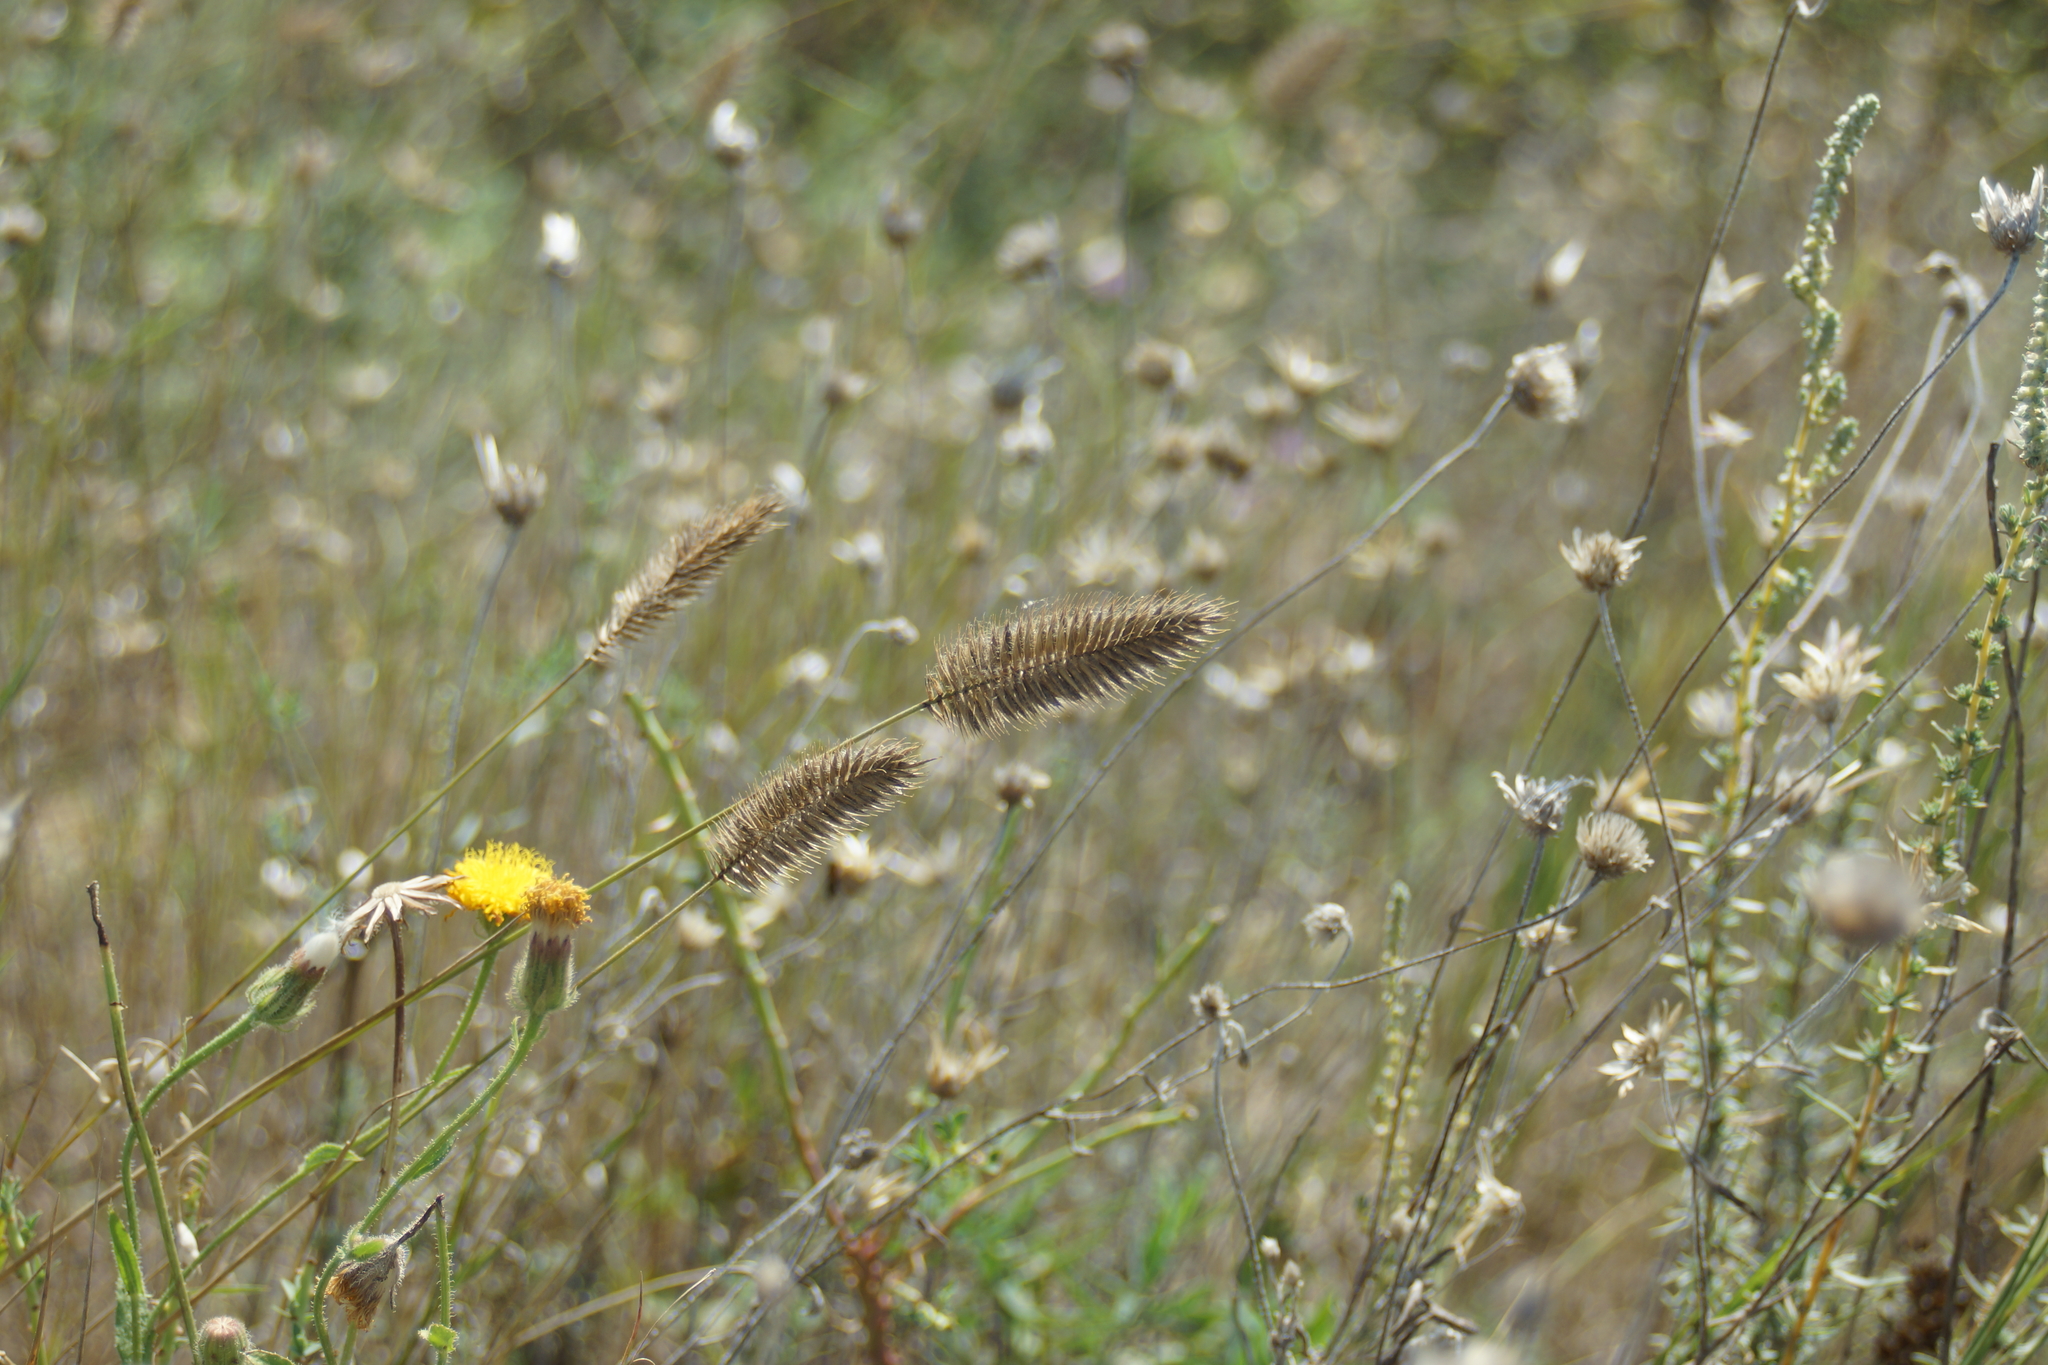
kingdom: Plantae
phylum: Tracheophyta
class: Liliopsida
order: Poales
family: Poaceae
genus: Agropyron
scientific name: Agropyron cristatum
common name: Crested wheatgrass
